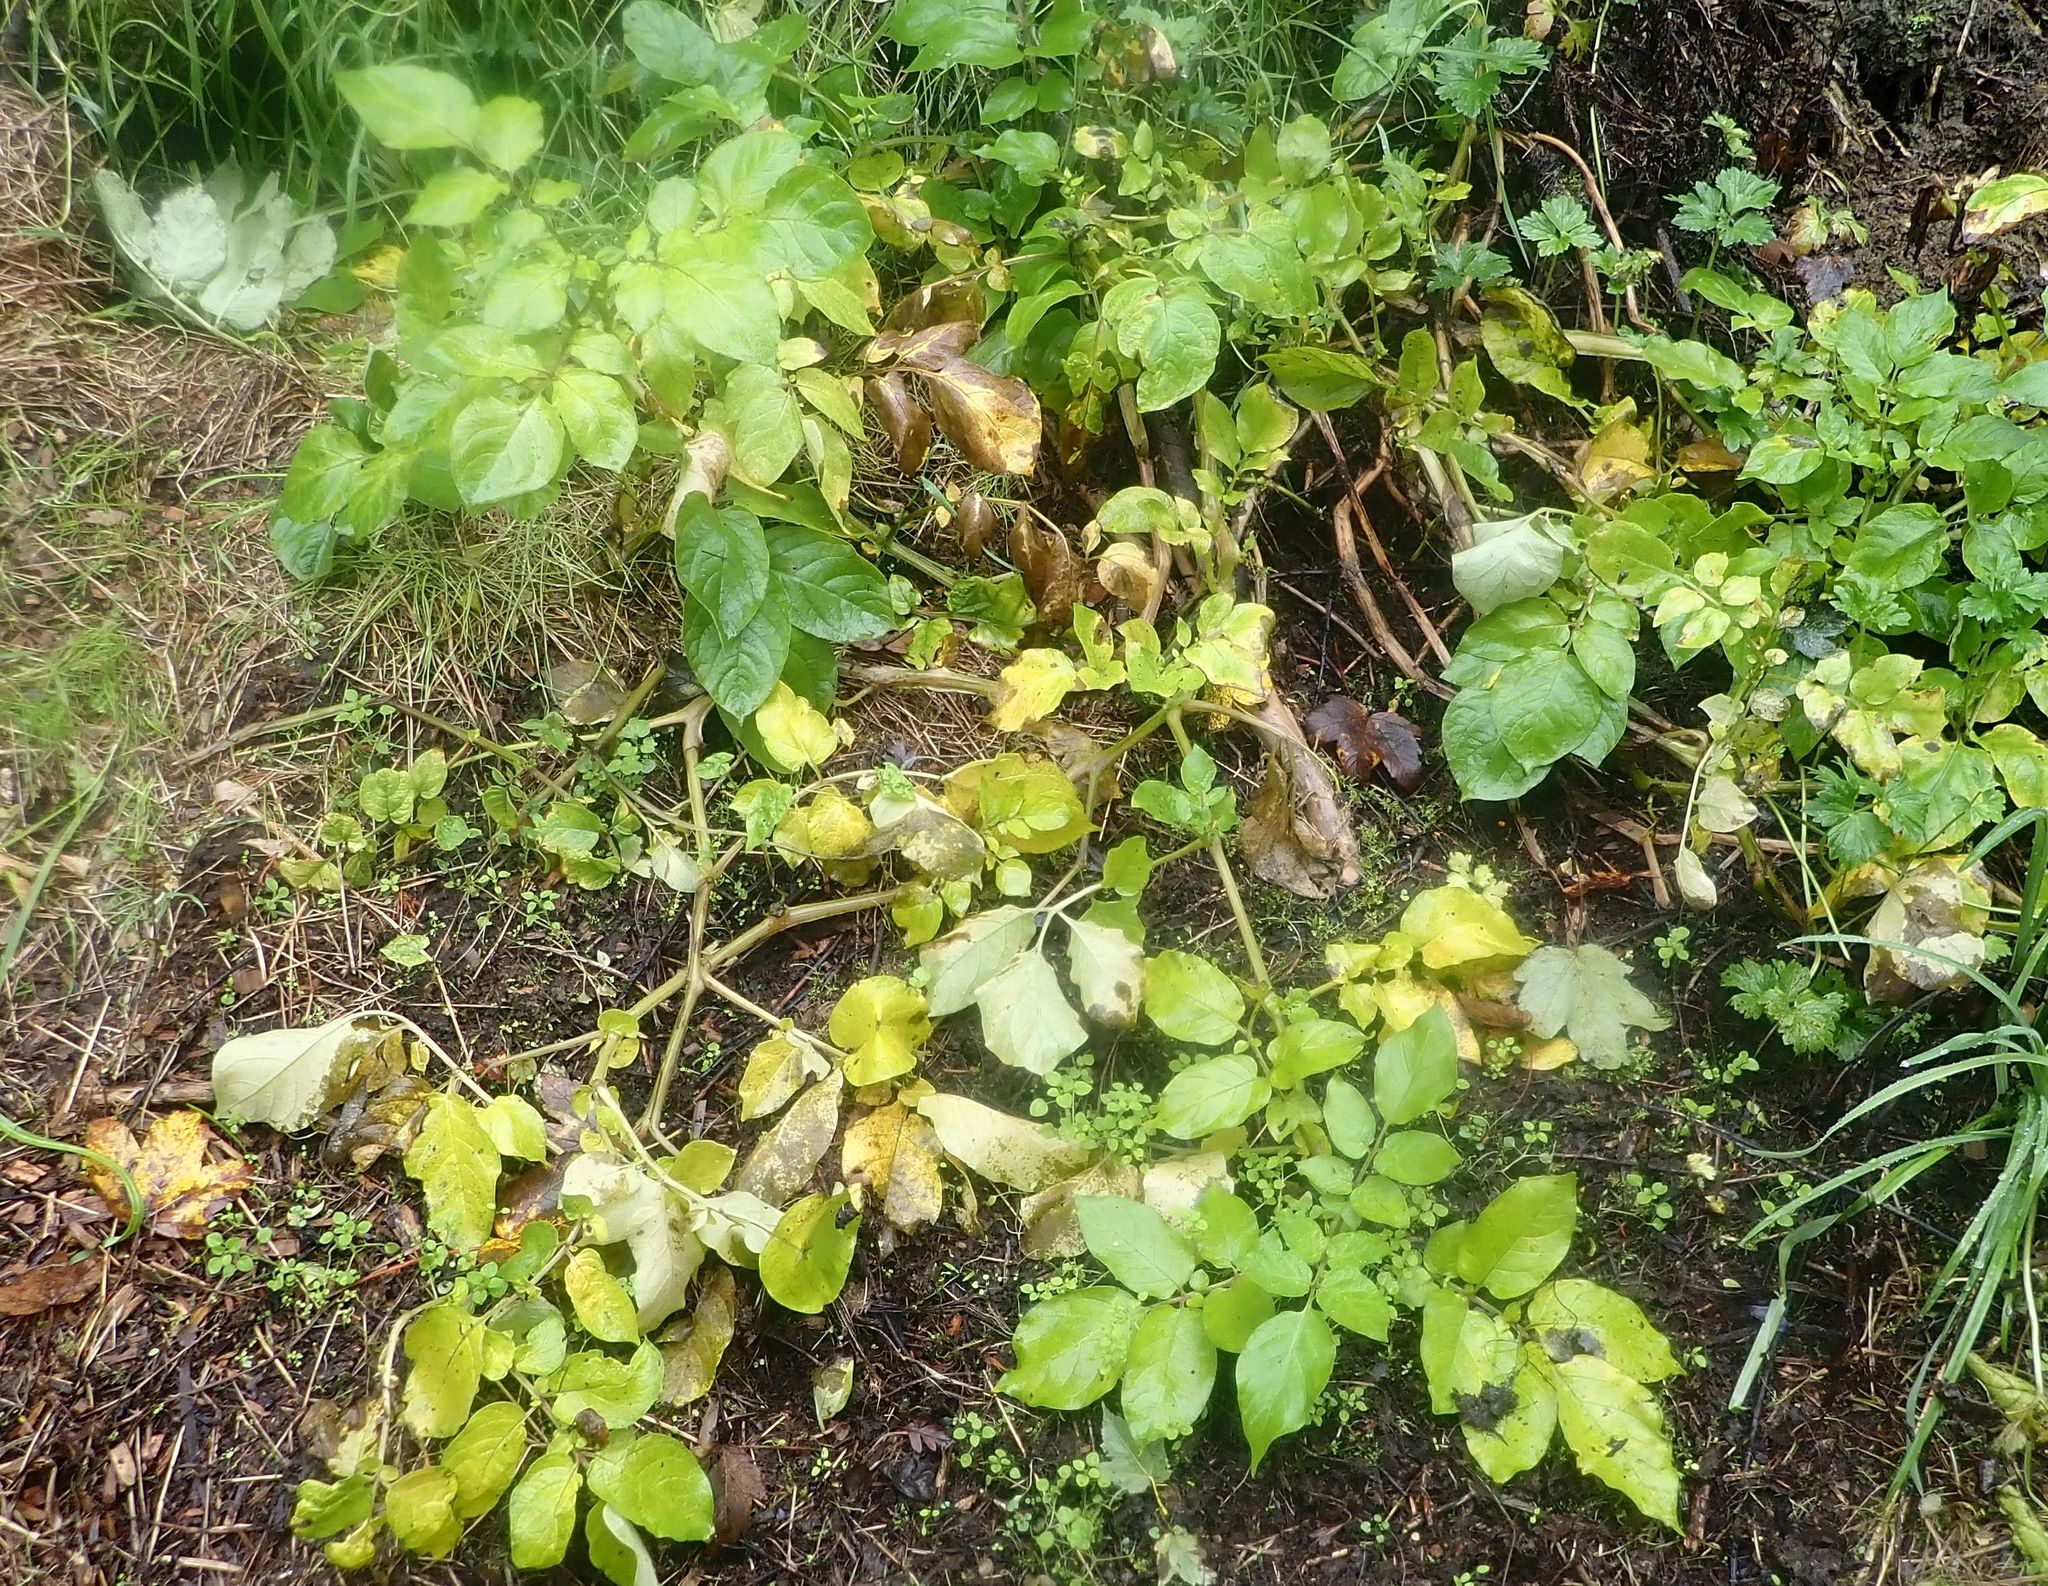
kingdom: Plantae
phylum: Tracheophyta
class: Magnoliopsida
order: Solanales
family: Solanaceae
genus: Solanum
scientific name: Solanum tuberosum
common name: Potato
